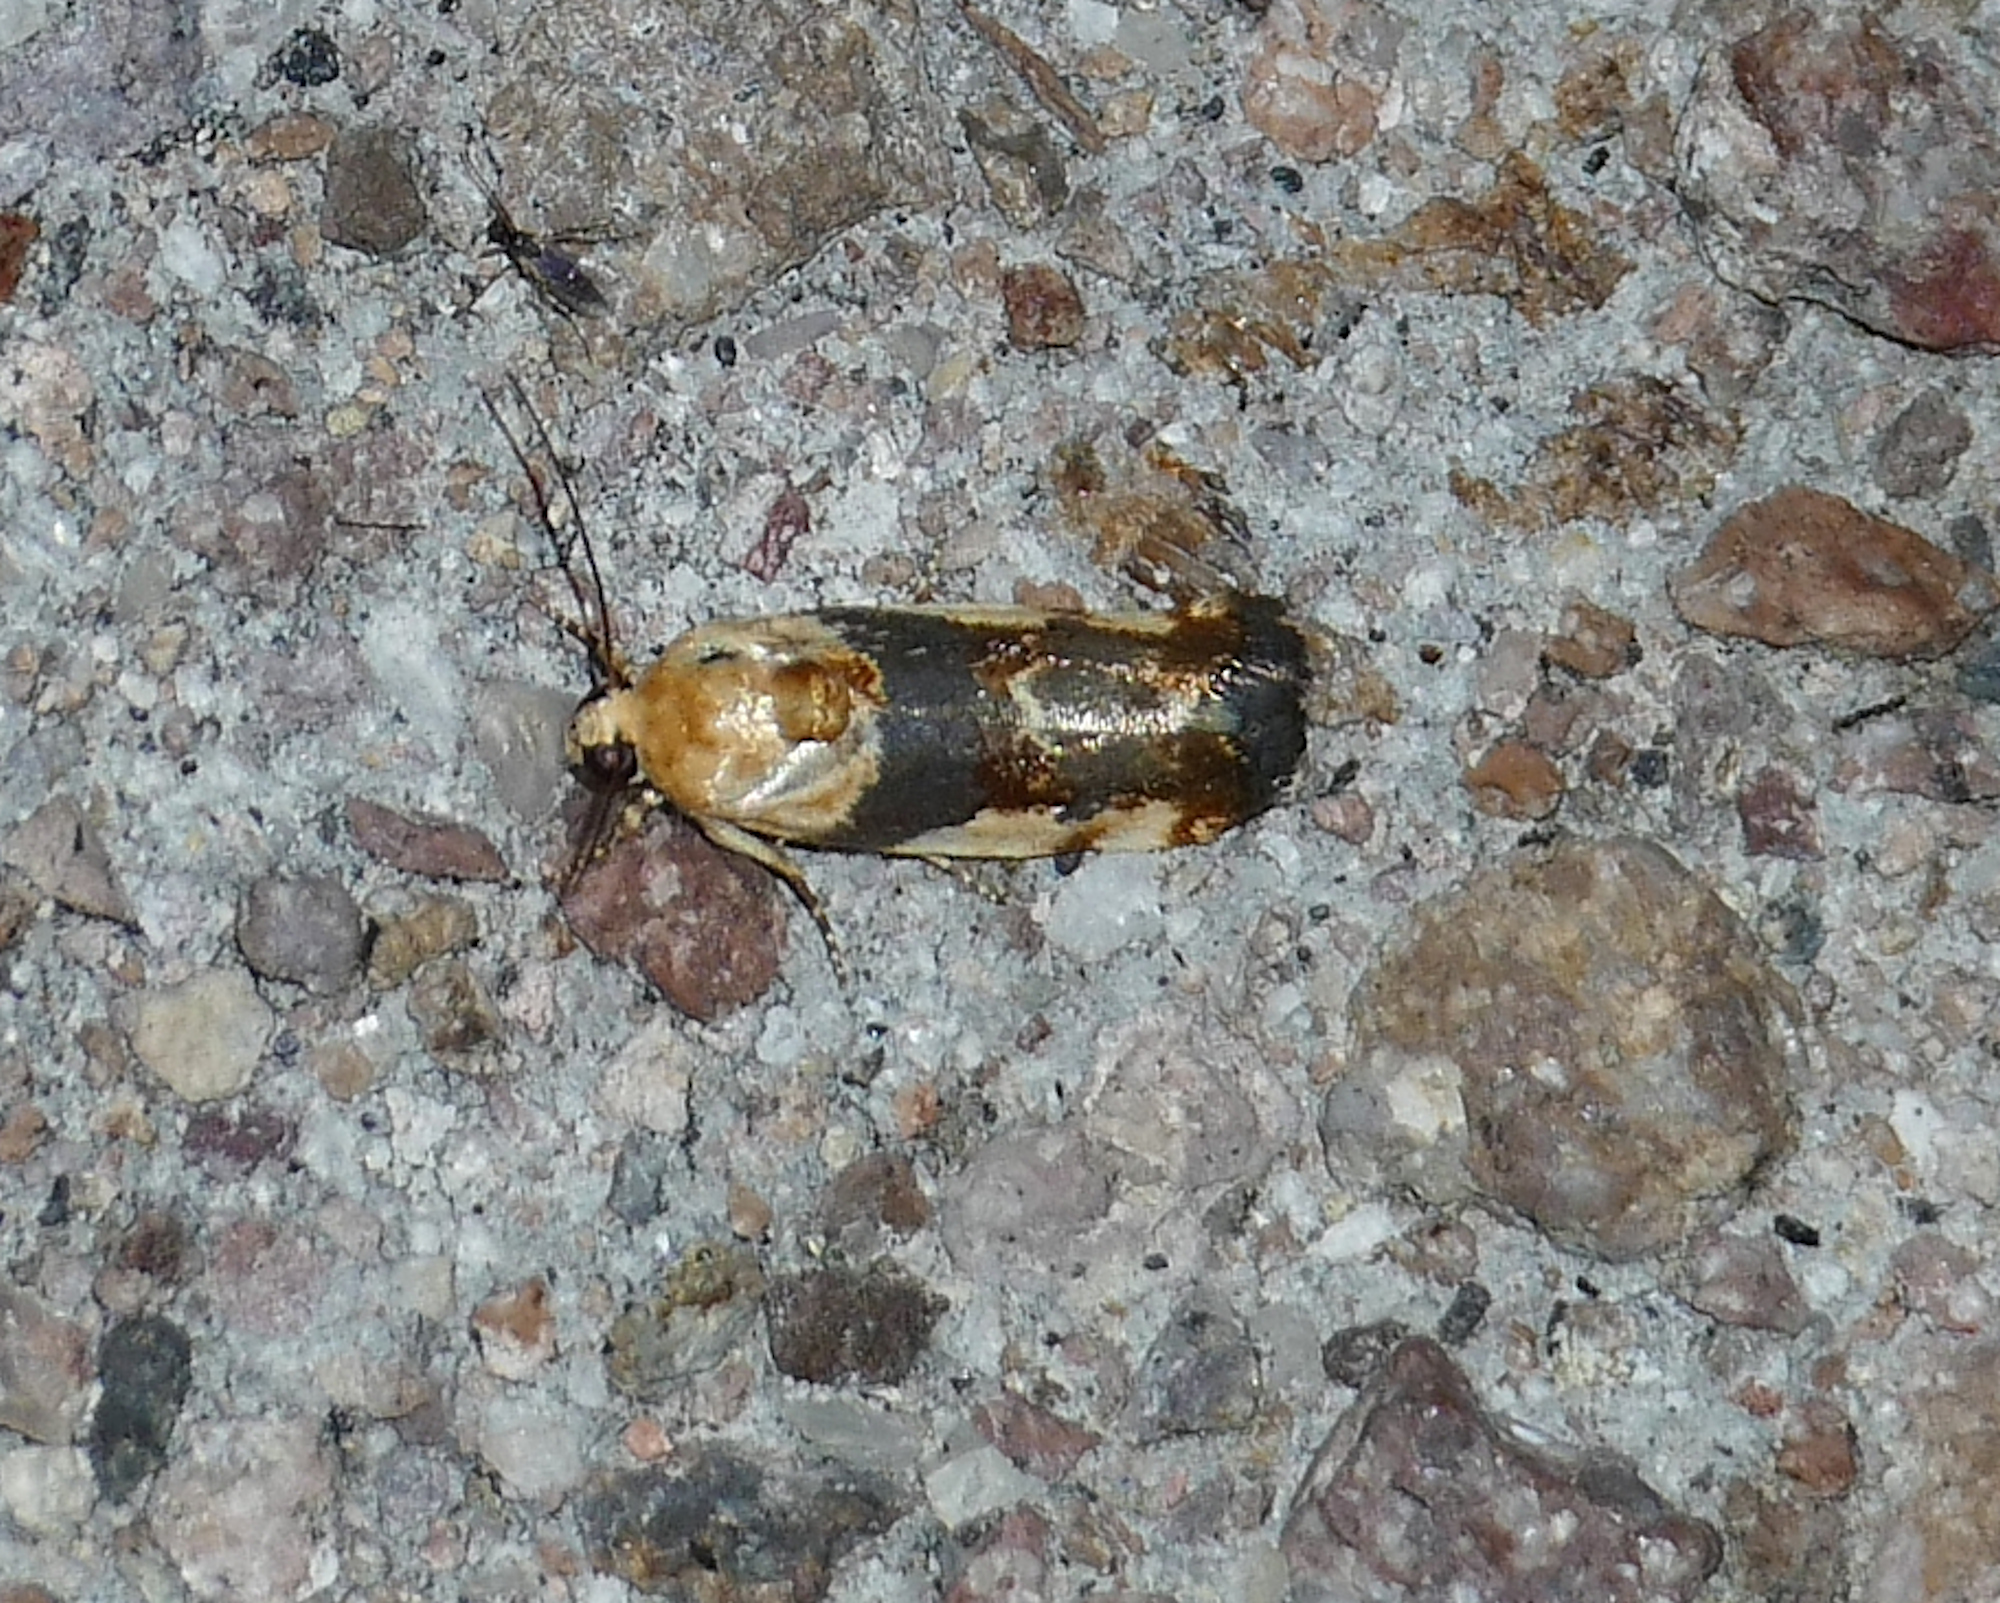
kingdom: Animalia
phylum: Arthropoda
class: Insecta
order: Lepidoptera
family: Noctuidae
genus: Acontia
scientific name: Acontia obatra
